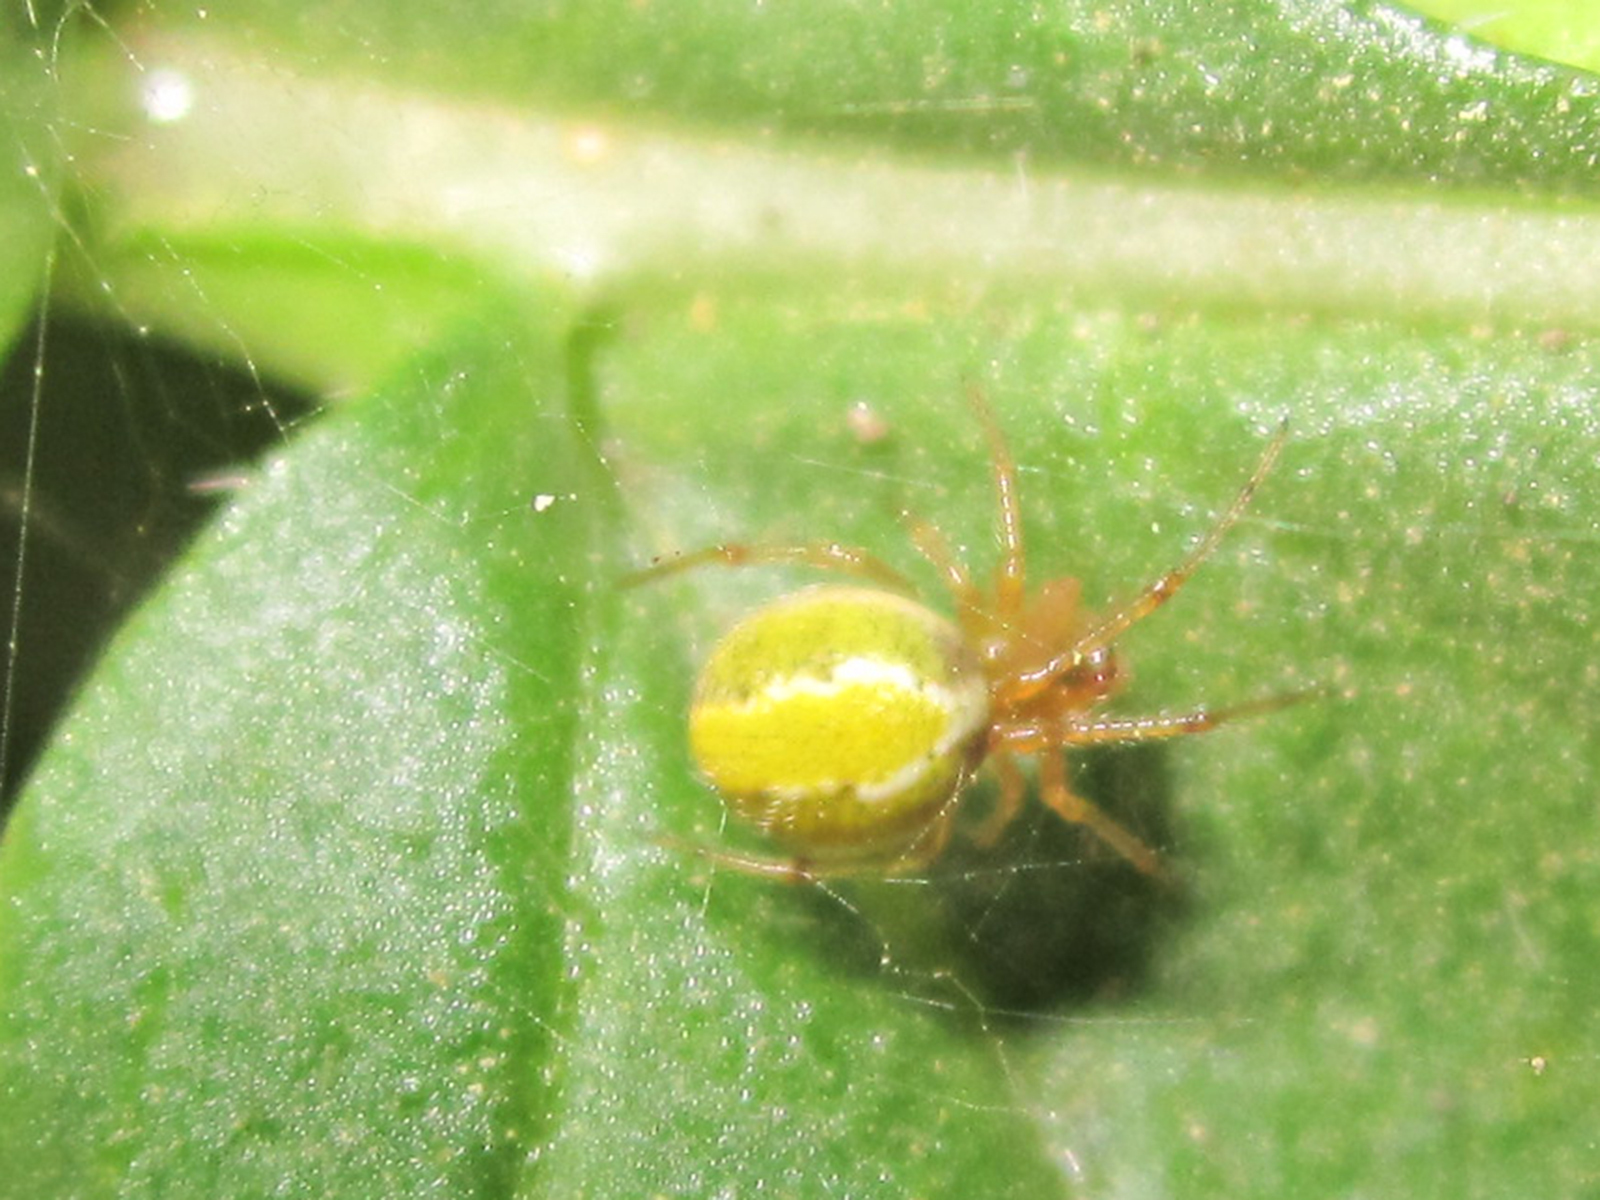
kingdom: Animalia
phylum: Arthropoda
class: Arachnida
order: Araneae
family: Theridiidae
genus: Selkirkiella
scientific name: Selkirkiella purpurea
